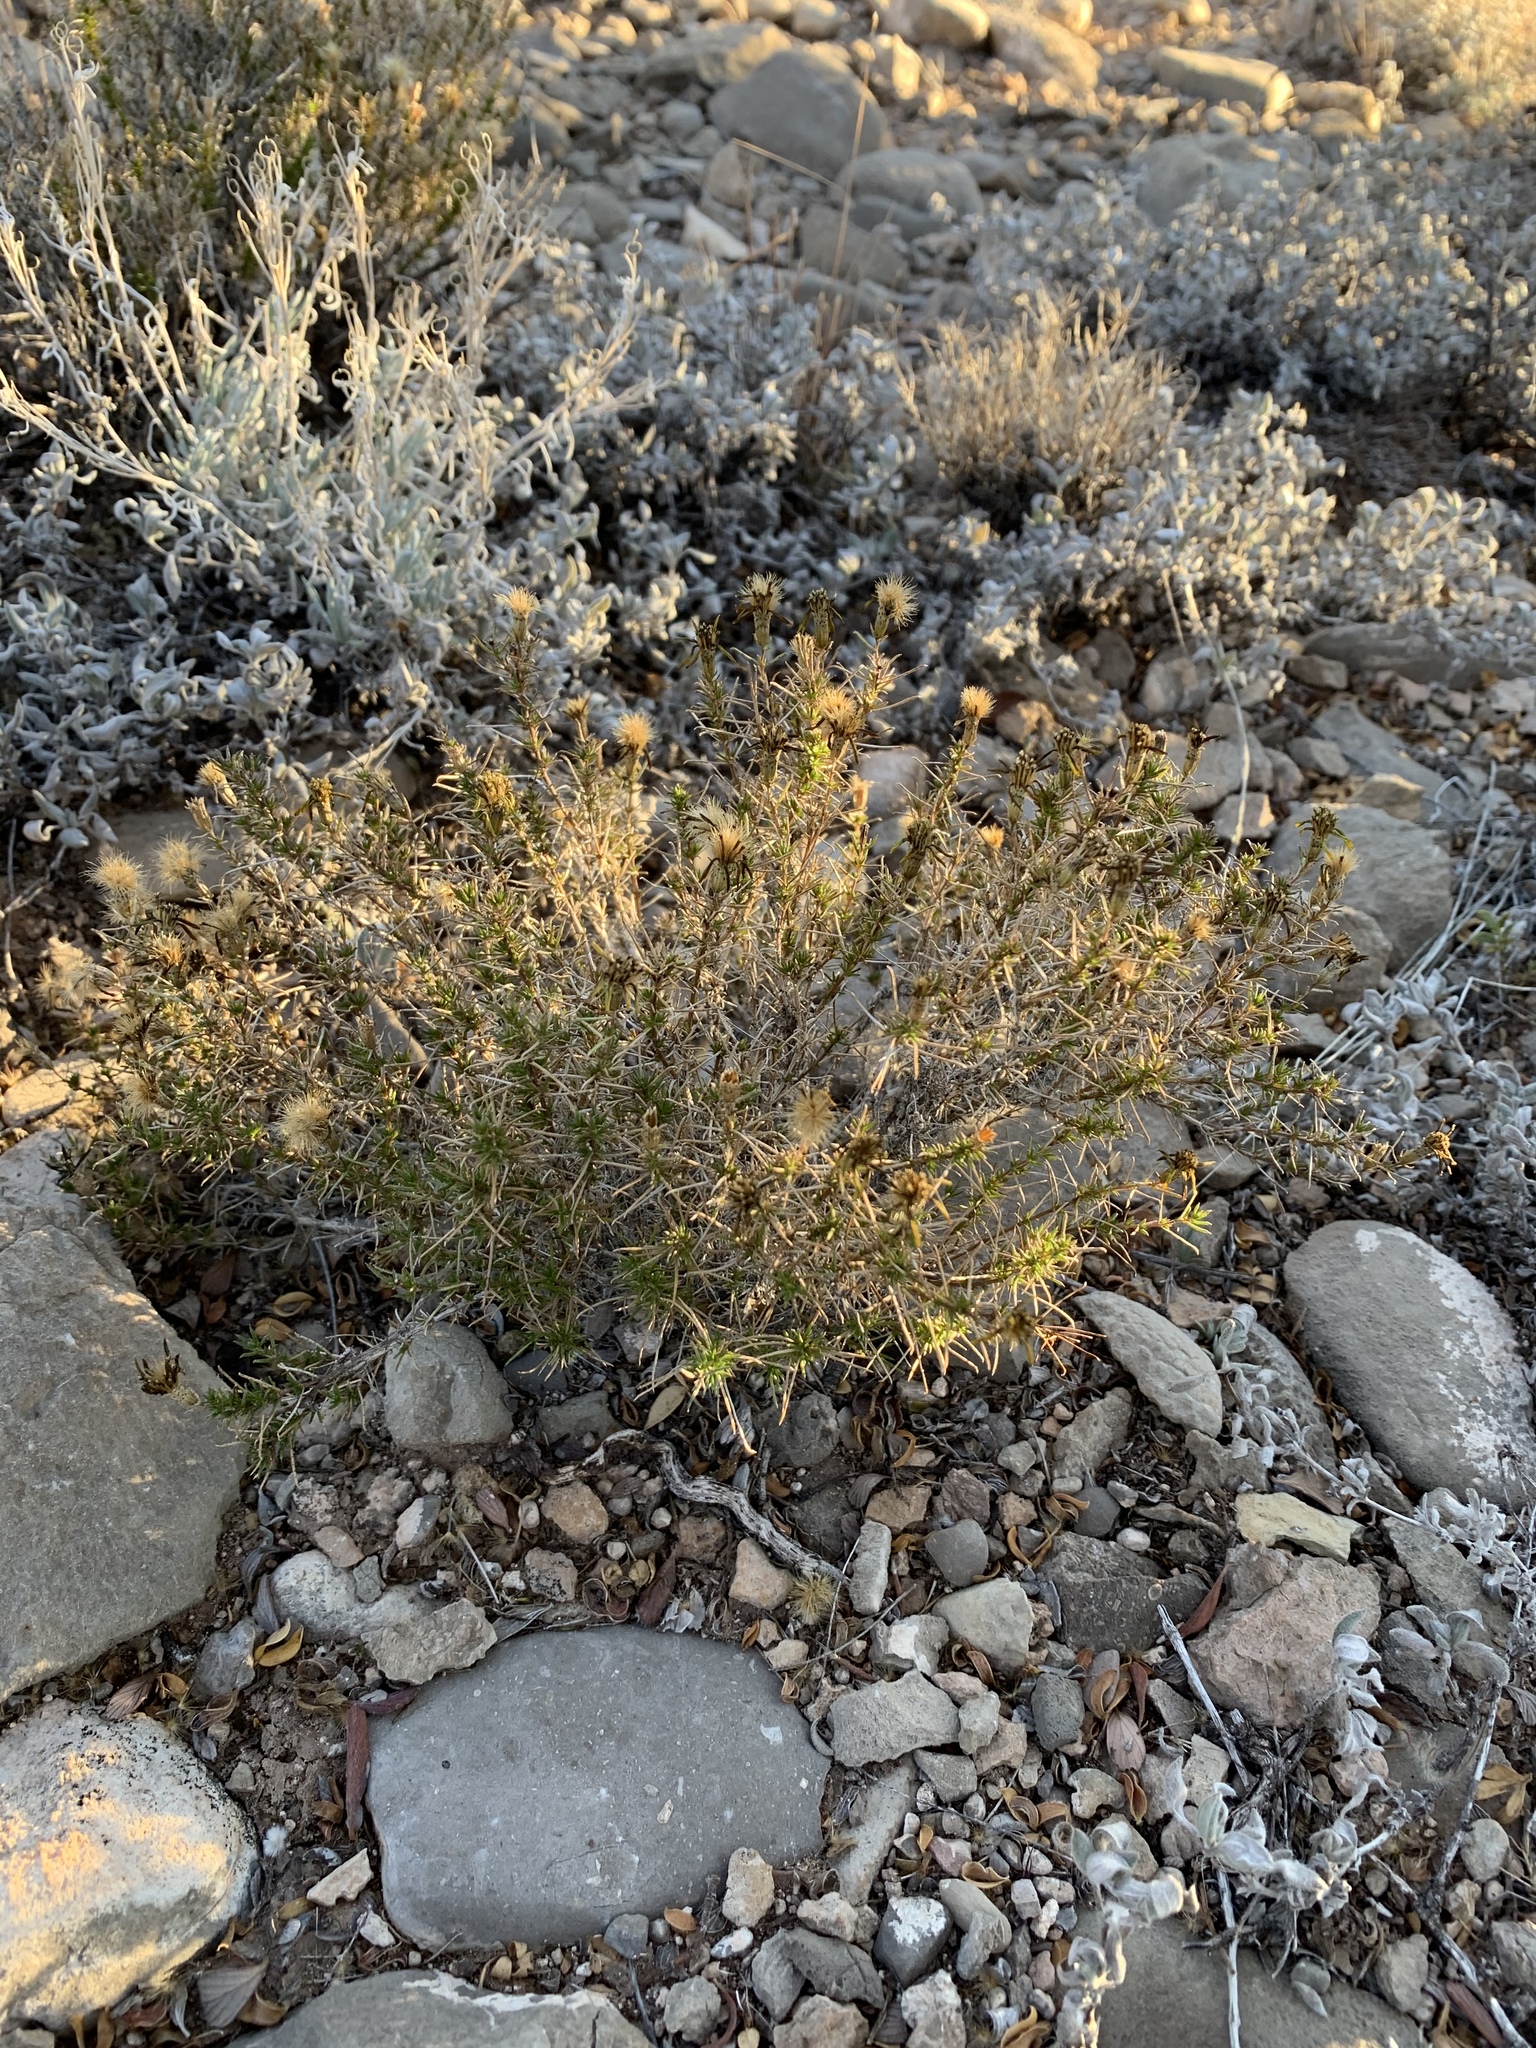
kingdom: Plantae
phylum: Tracheophyta
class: Magnoliopsida
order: Asterales
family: Asteraceae
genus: Thymophylla
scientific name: Thymophylla acerosa
